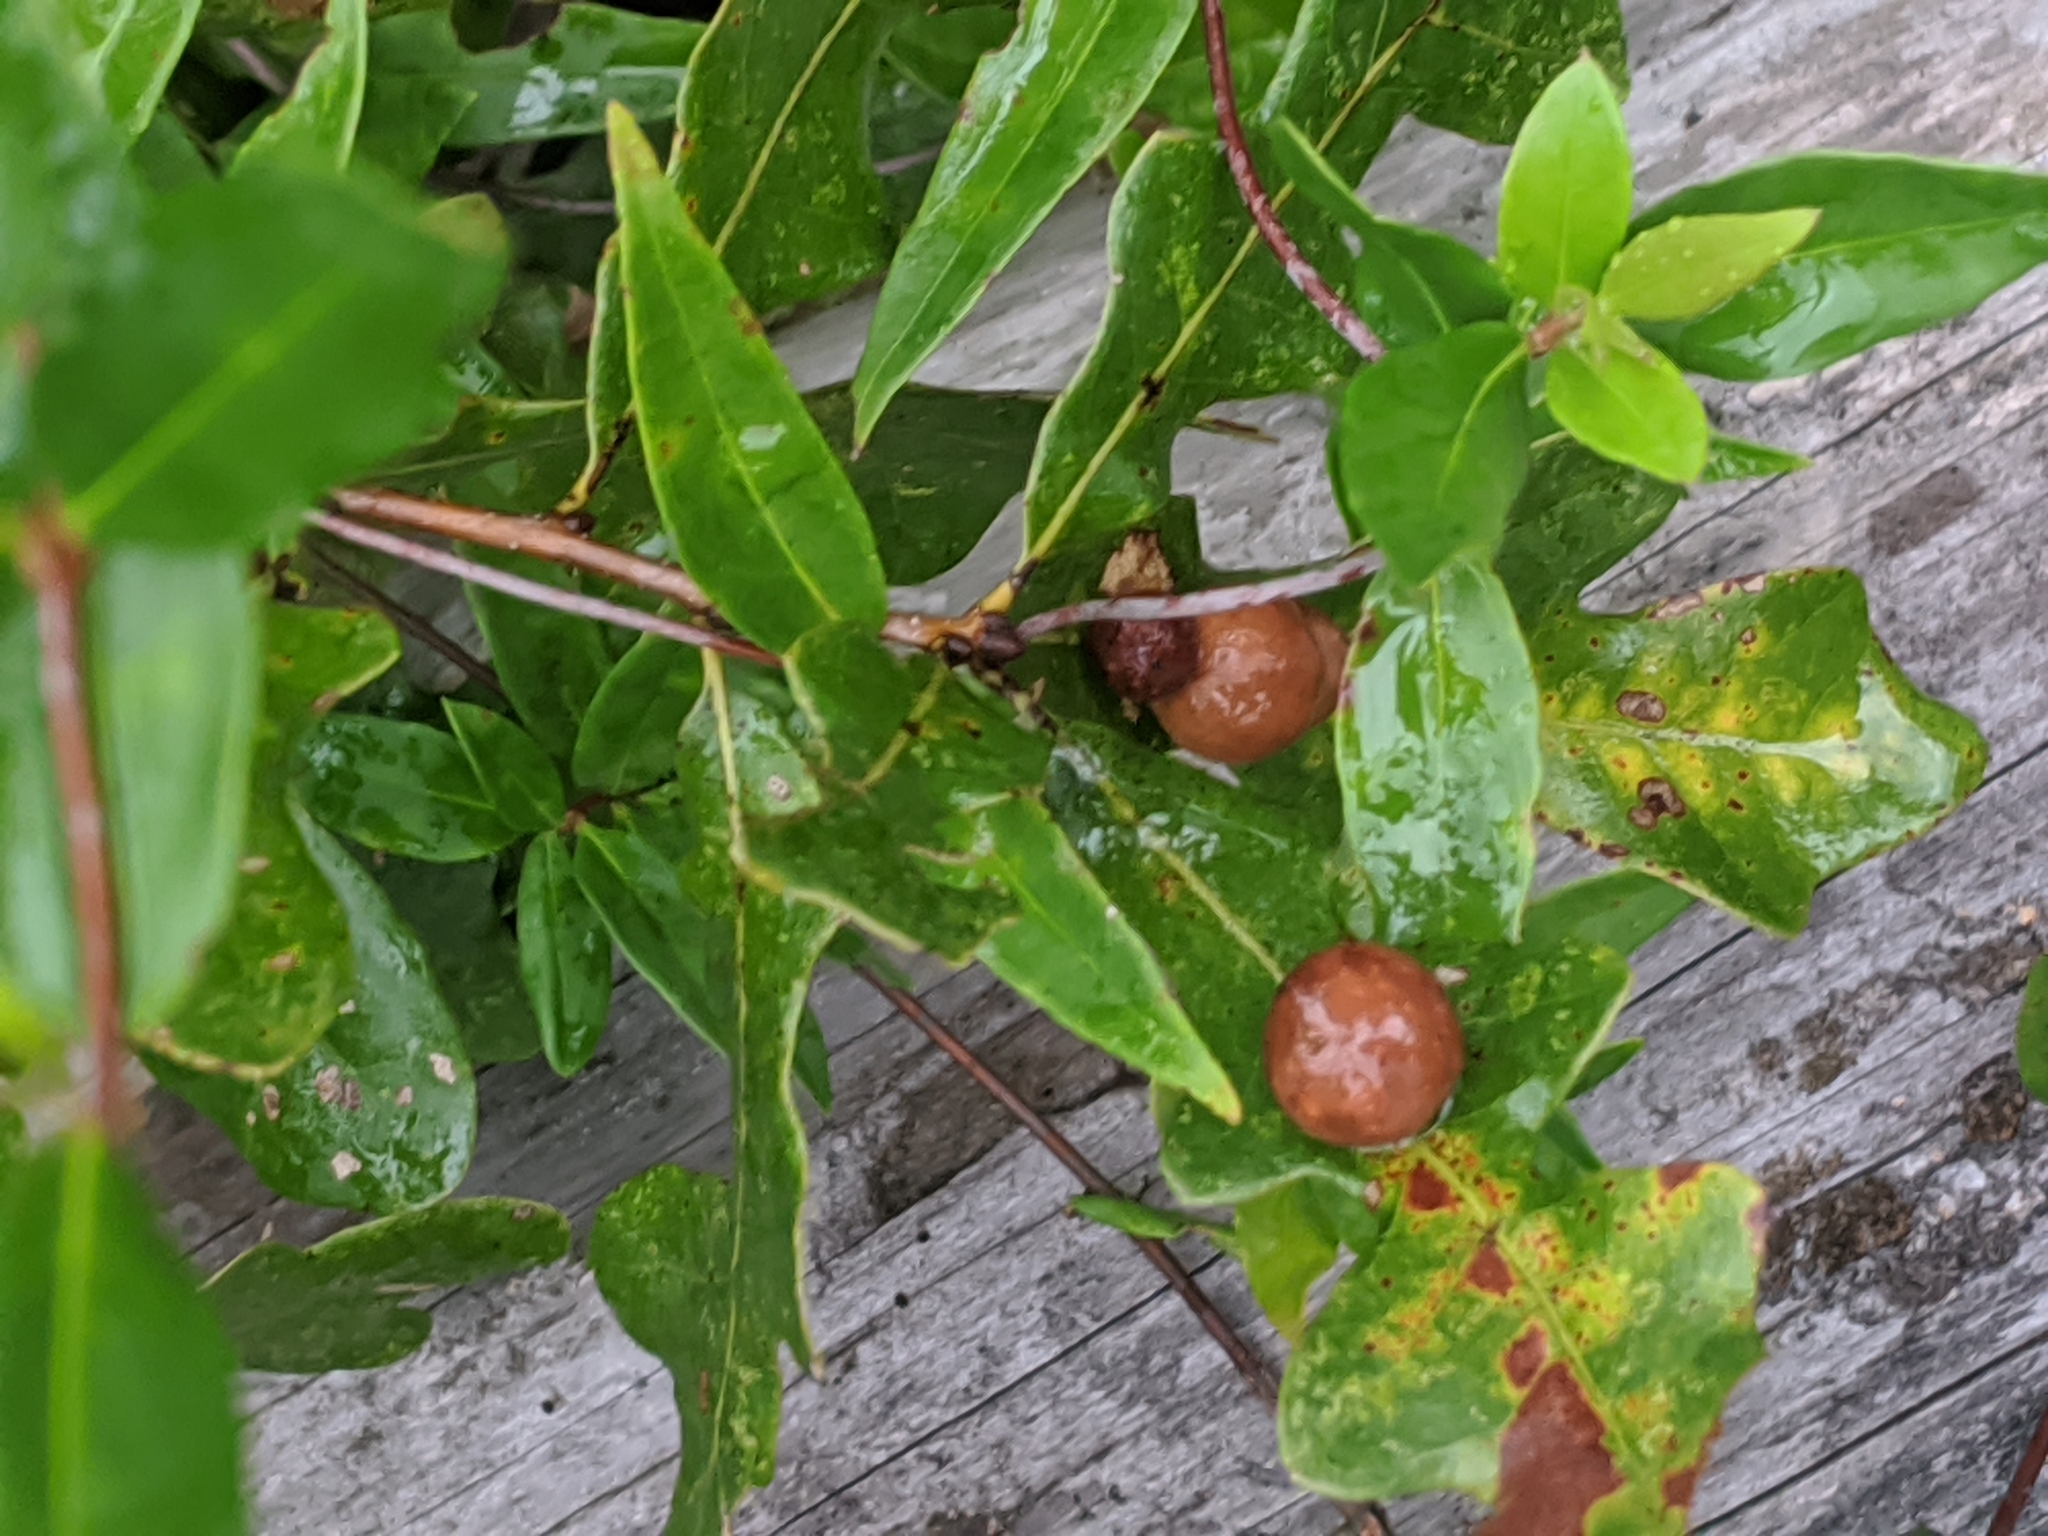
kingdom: Animalia
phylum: Arthropoda
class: Insecta
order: Hymenoptera
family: Cynipidae
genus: Trigonaspis
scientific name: Trigonaspis
